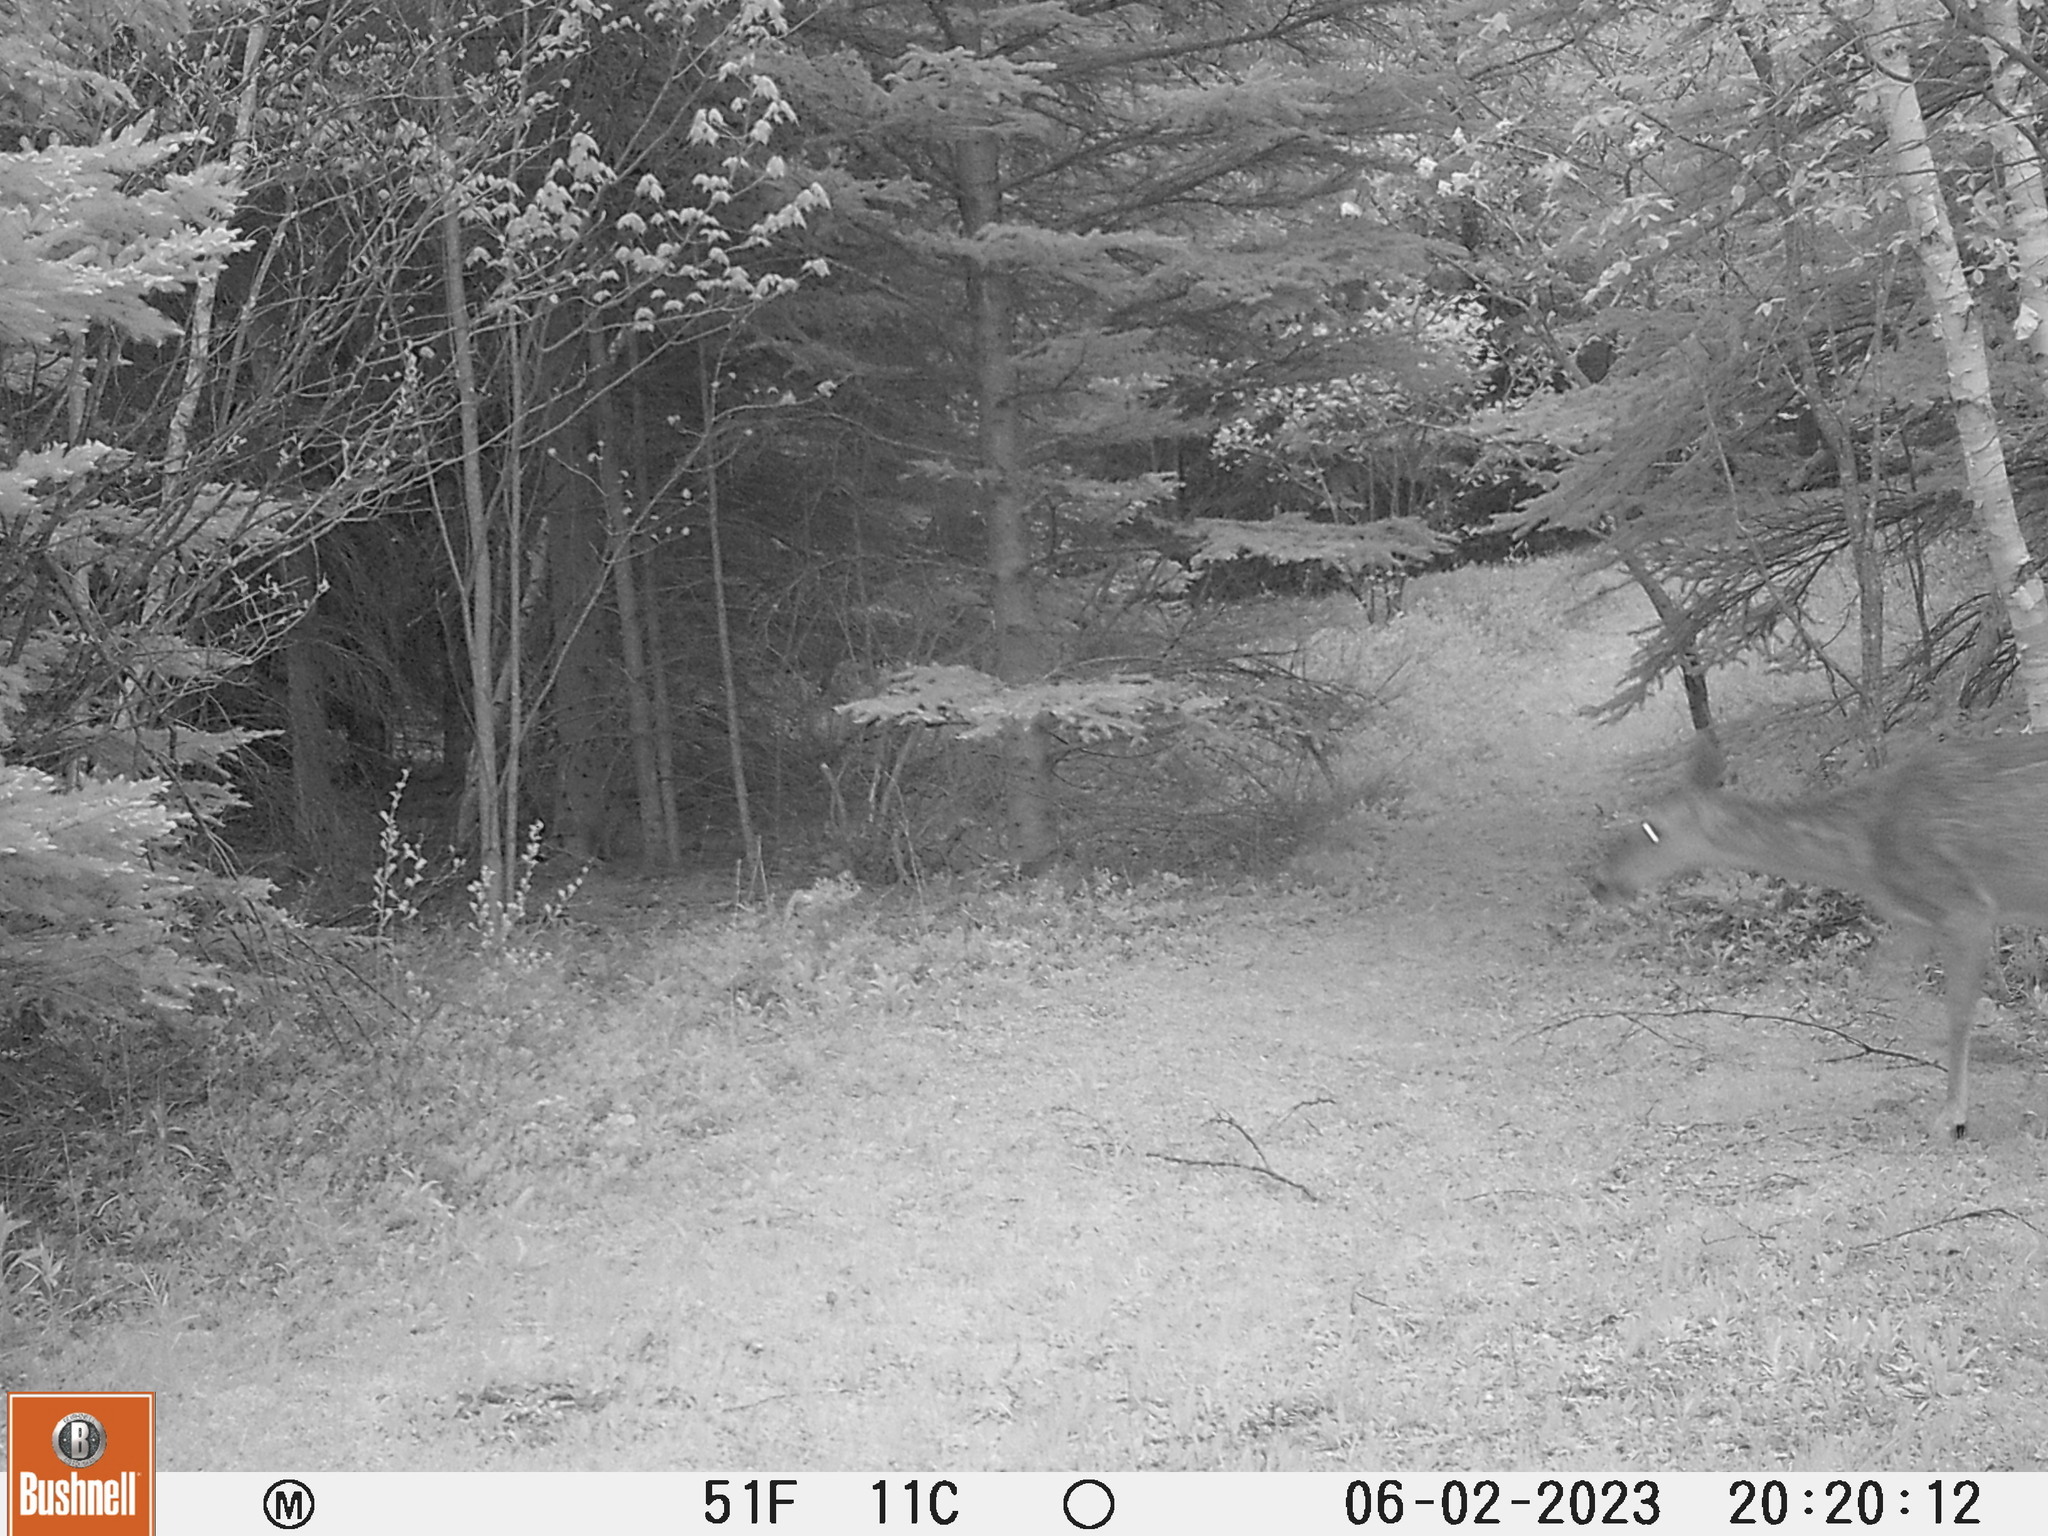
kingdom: Animalia
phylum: Chordata
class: Mammalia
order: Artiodactyla
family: Cervidae
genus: Odocoileus
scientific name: Odocoileus virginianus
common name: White-tailed deer
